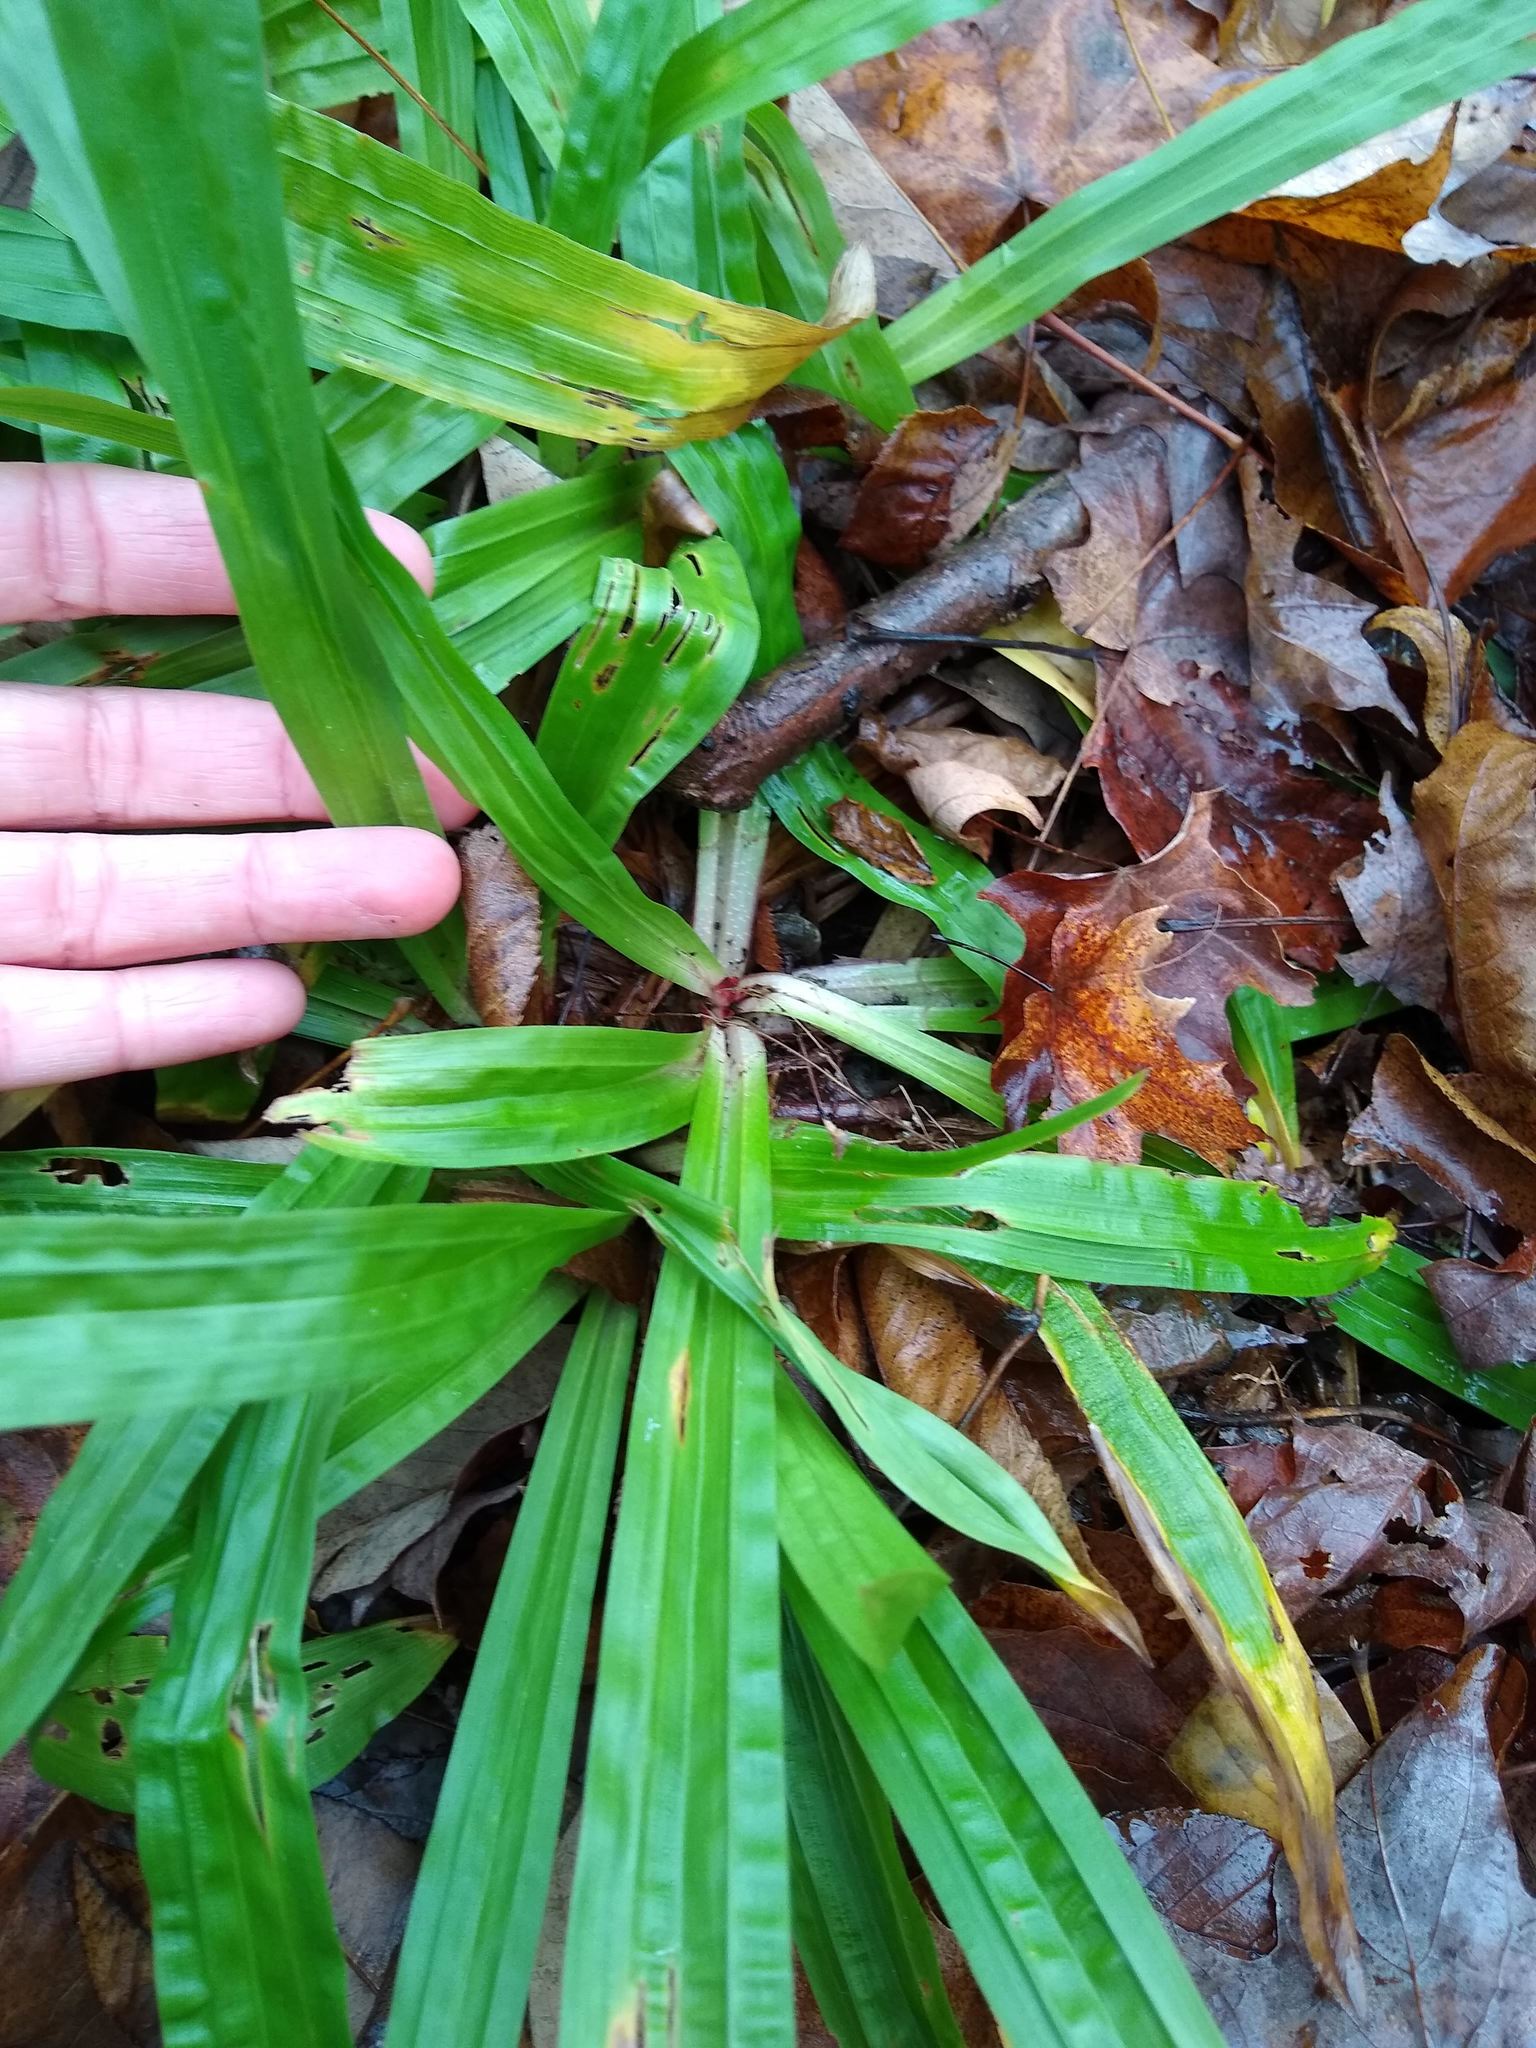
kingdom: Plantae
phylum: Tracheophyta
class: Liliopsida
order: Poales
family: Cyperaceae
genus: Carex
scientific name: Carex plantaginea
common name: Plantain-leaved sedge
